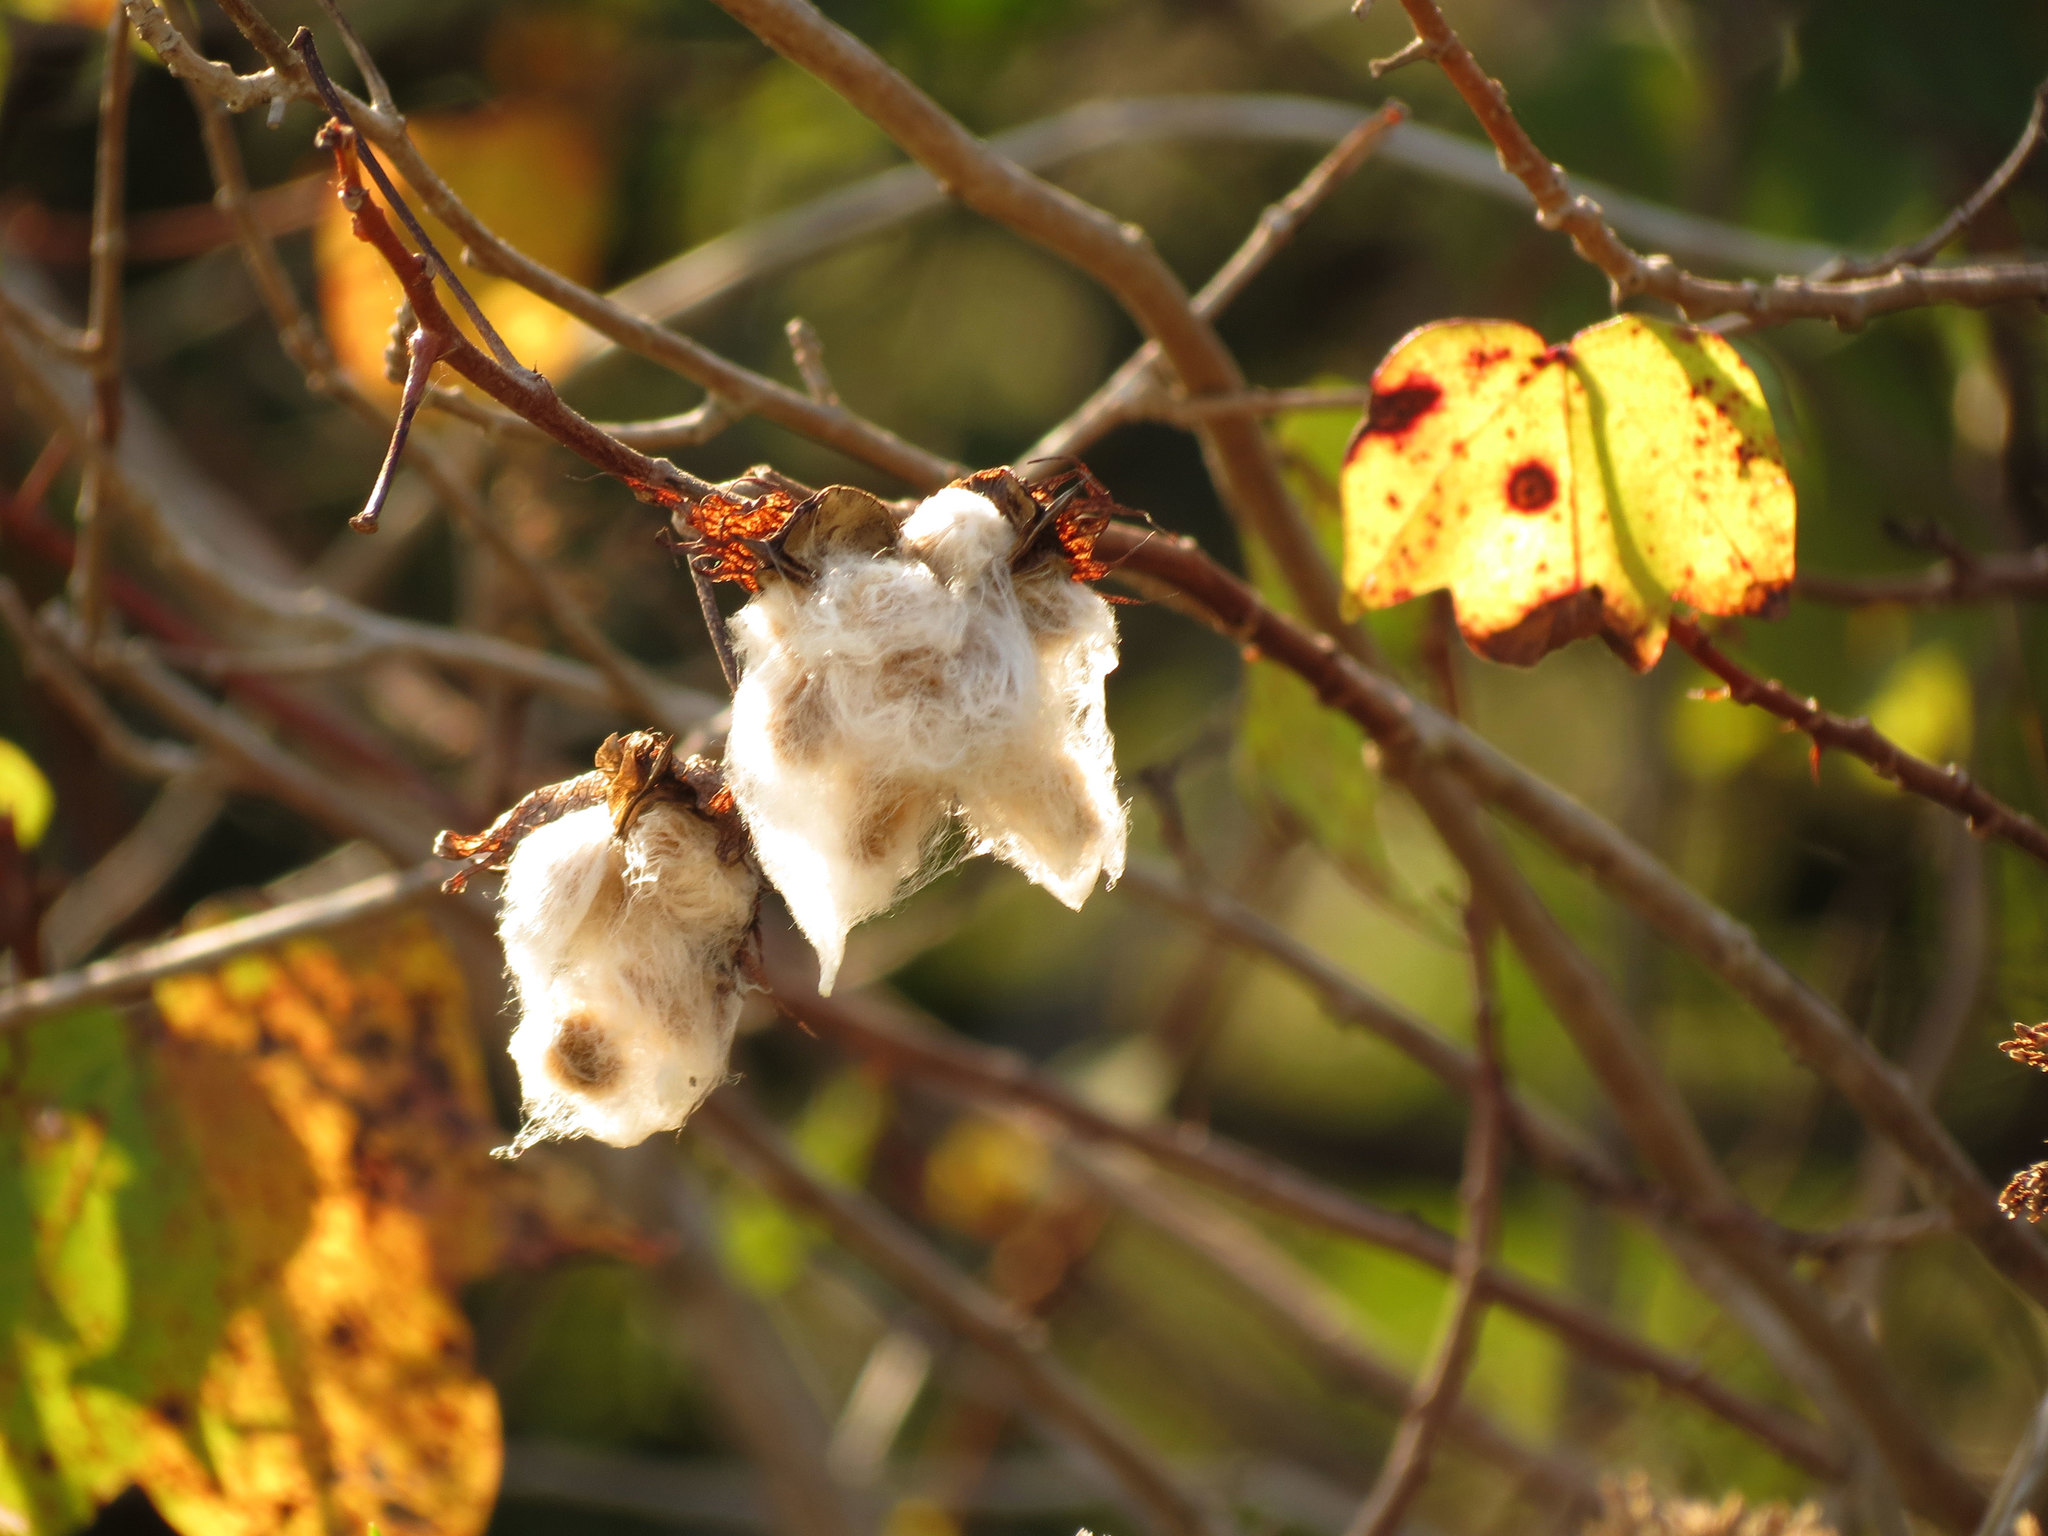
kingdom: Plantae
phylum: Tracheophyta
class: Magnoliopsida
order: Malvales
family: Malvaceae
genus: Gossypium
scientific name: Gossypium hirsutum
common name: Cotton
